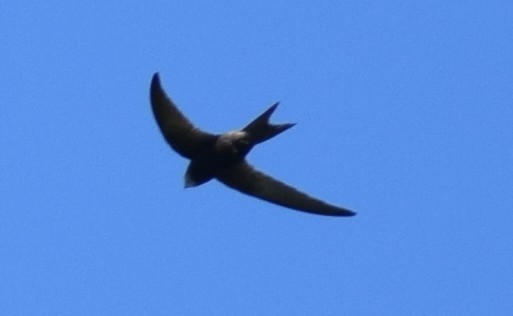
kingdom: Animalia
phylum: Chordata
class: Aves
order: Apodiformes
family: Apodidae
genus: Apus
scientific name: Apus apus
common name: Common swift
